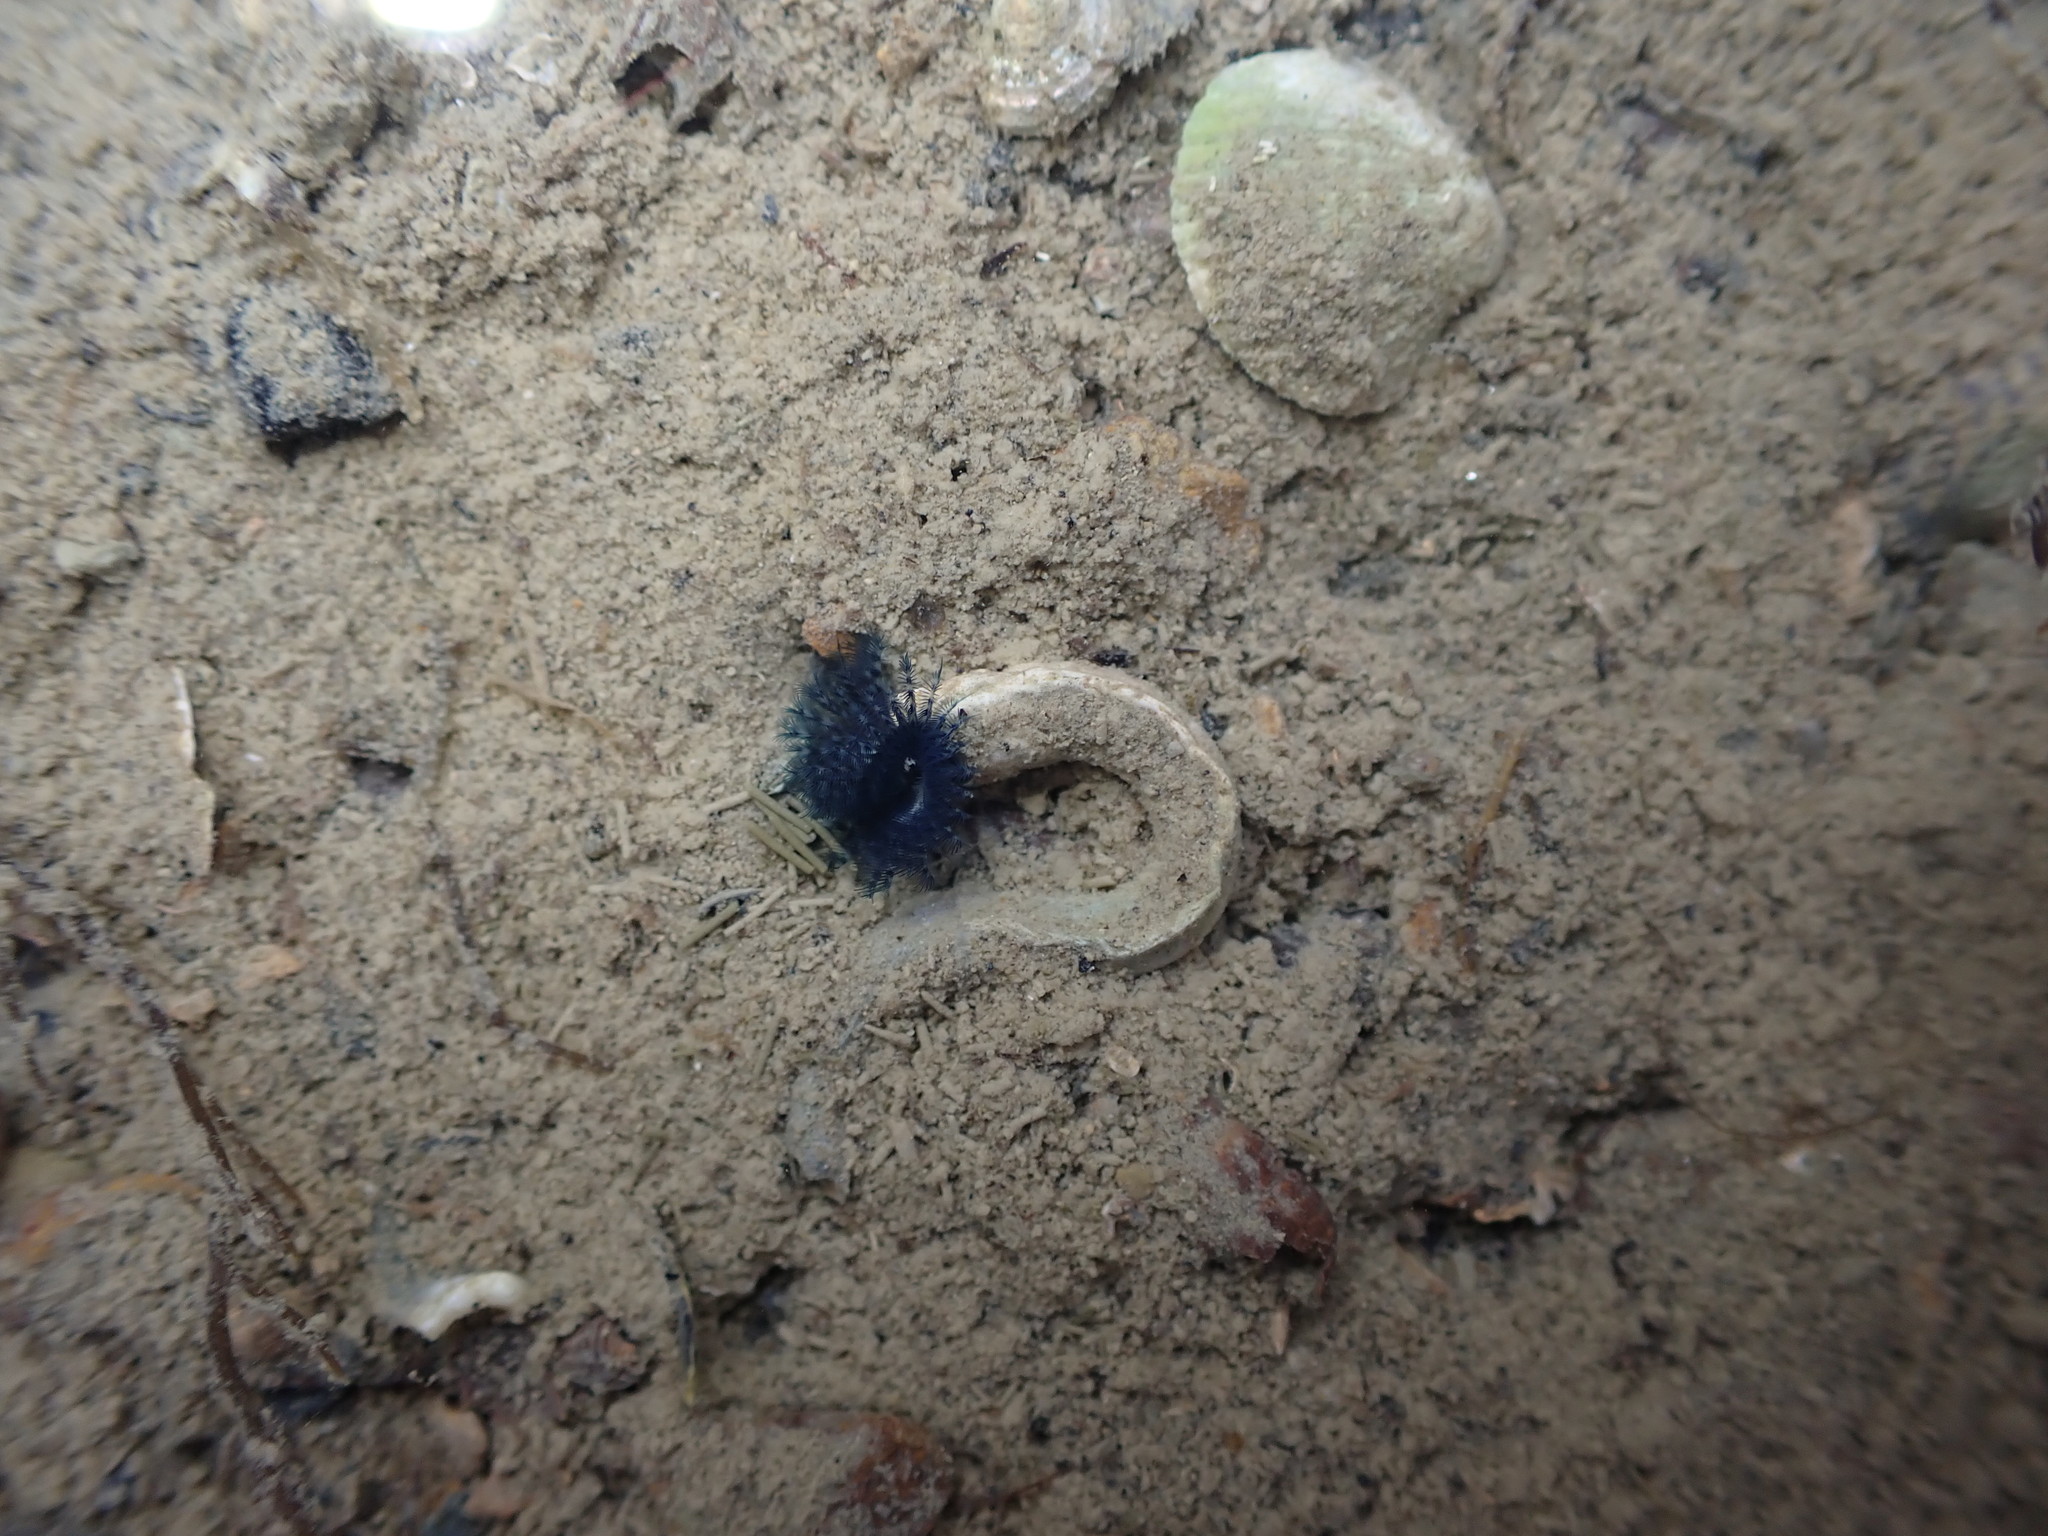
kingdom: Animalia
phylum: Annelida
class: Polychaeta
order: Sabellida
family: Serpulidae
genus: Spirobranchus
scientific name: Spirobranchus cariniferus
